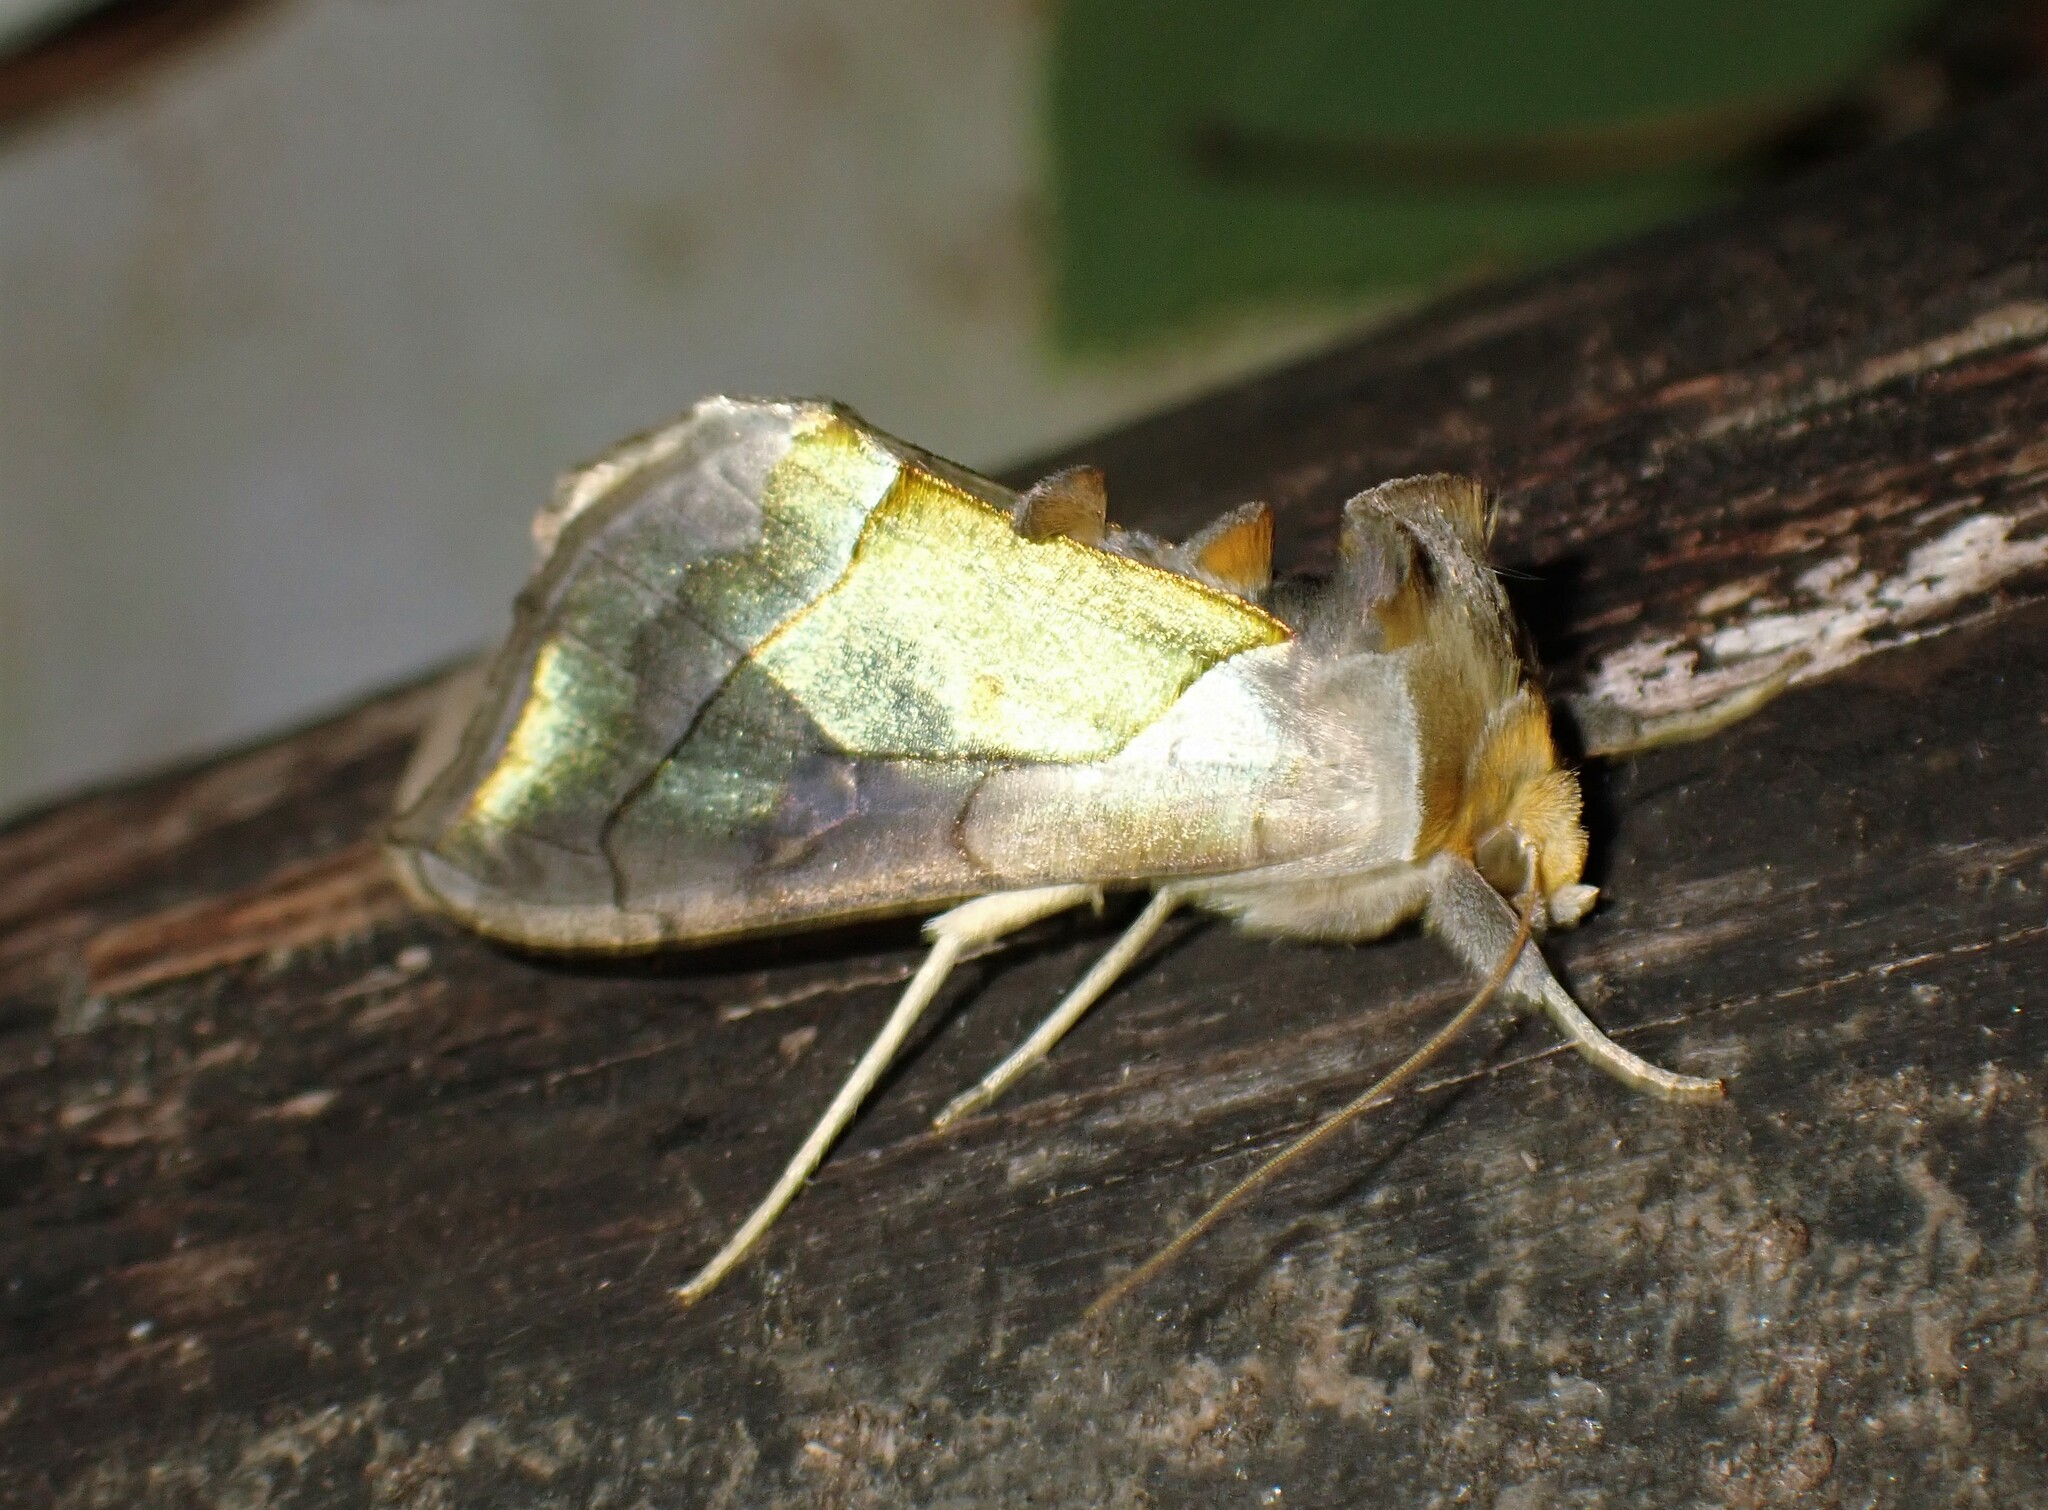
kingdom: Animalia
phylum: Arthropoda
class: Insecta
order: Lepidoptera
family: Noctuidae
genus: Diachrysia
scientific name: Diachrysia balluca
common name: Green-patched looper moth
